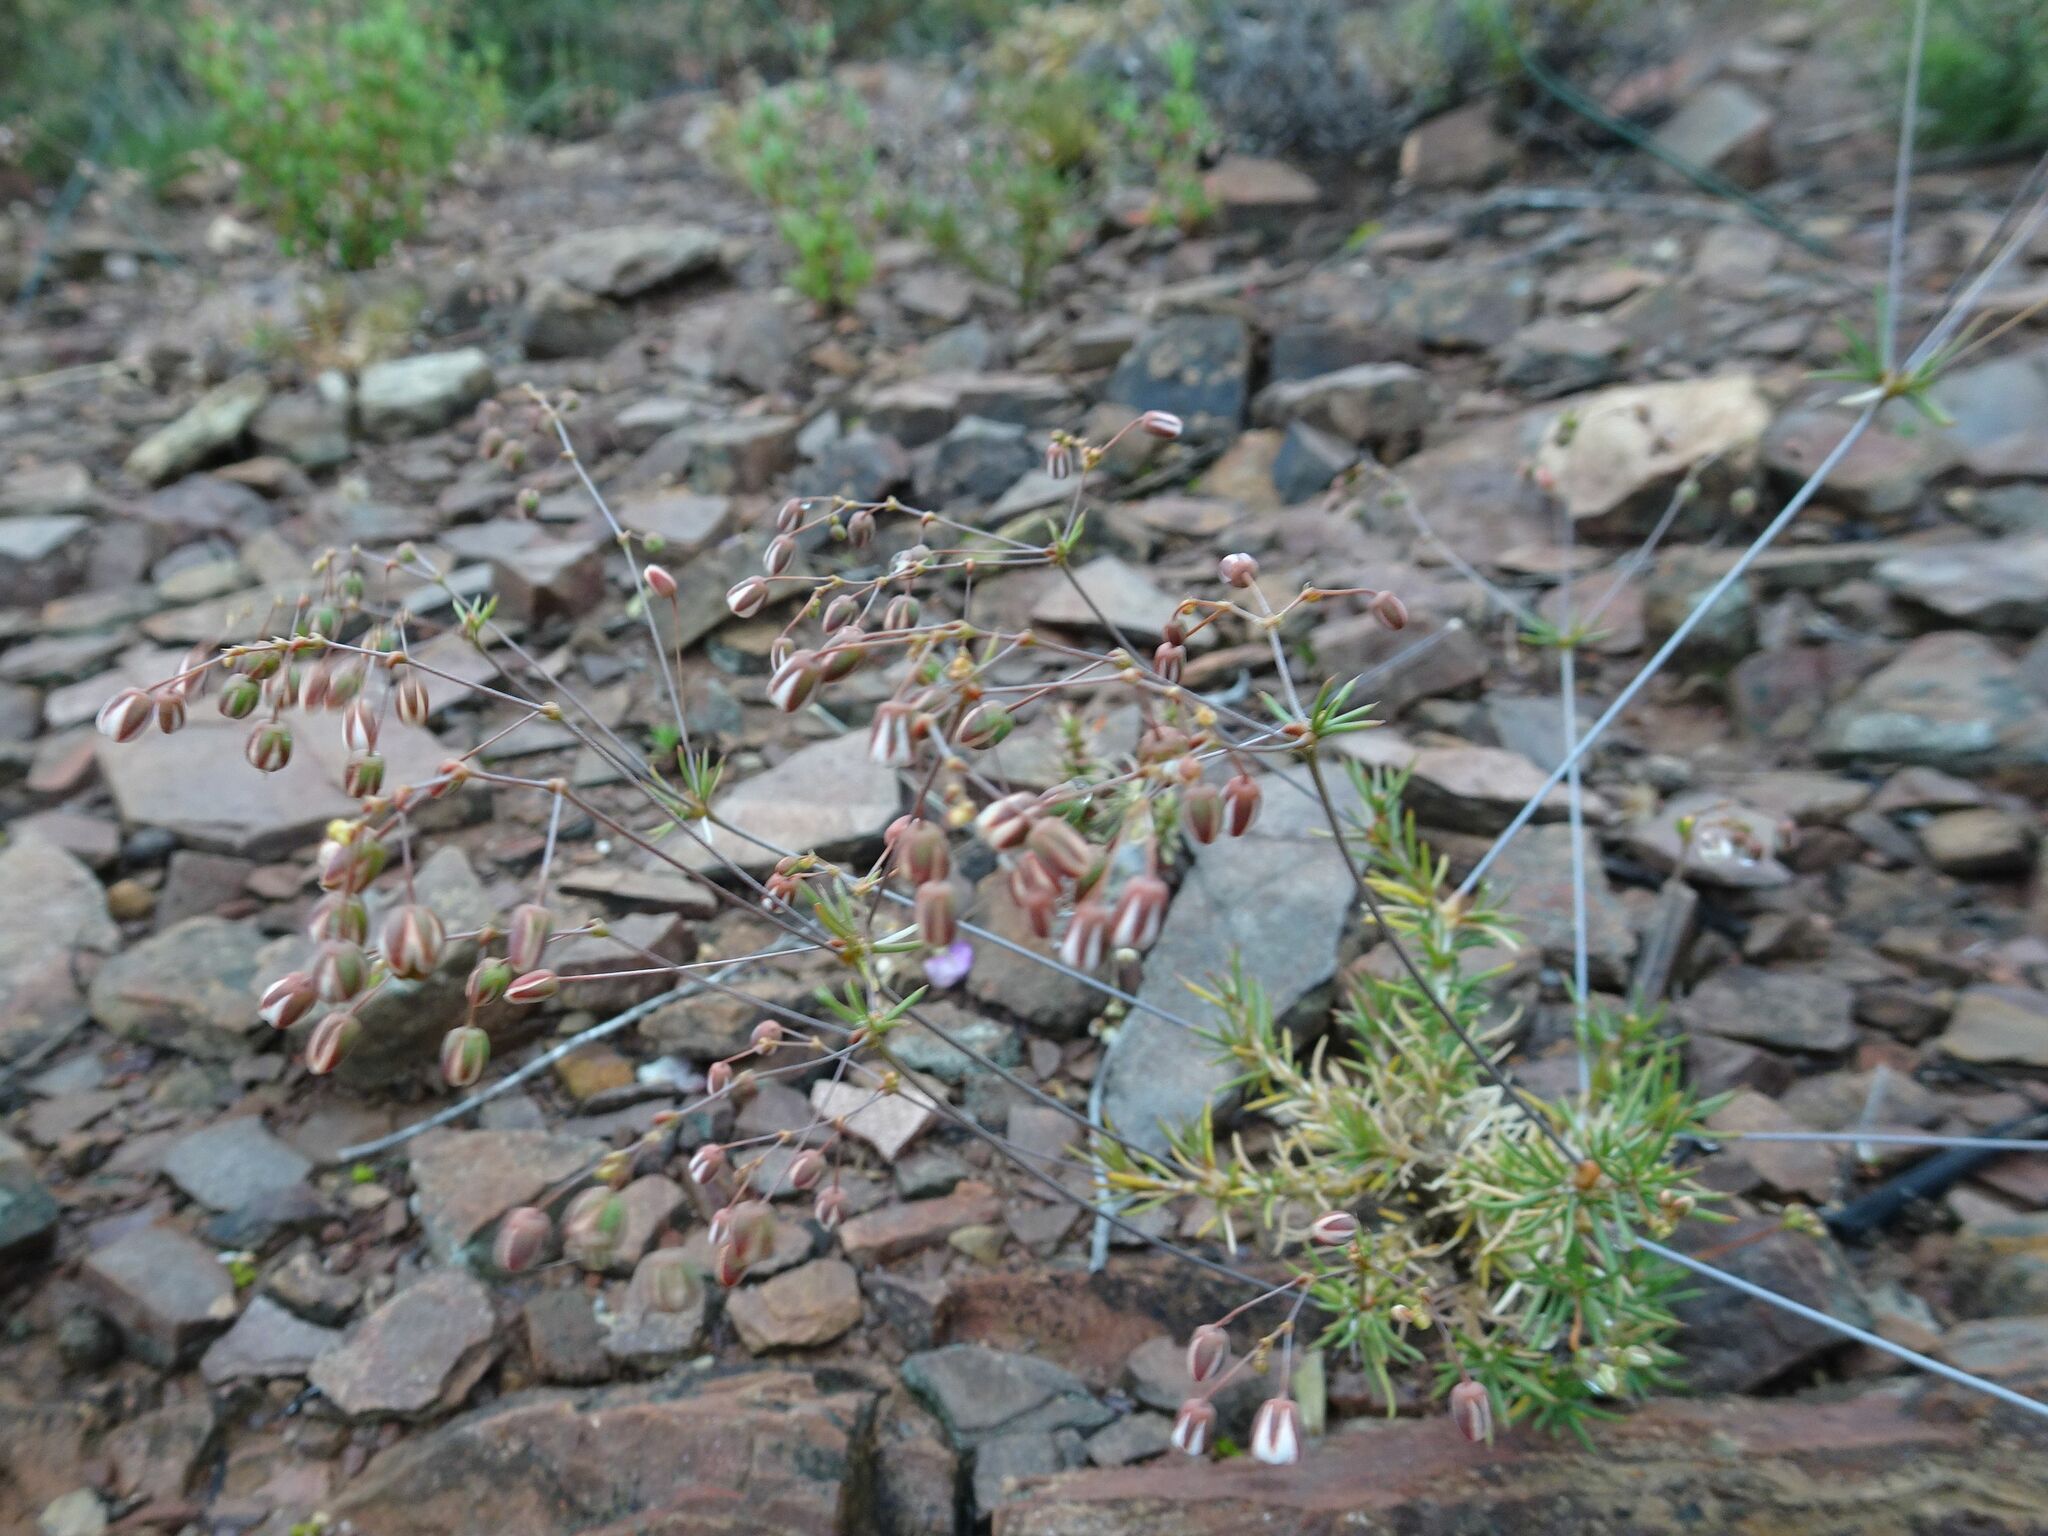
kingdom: Plantae
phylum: Tracheophyta
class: Magnoliopsida
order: Caryophyllales
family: Molluginaceae
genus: Pharnaceum
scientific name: Pharnaceum aurantium
